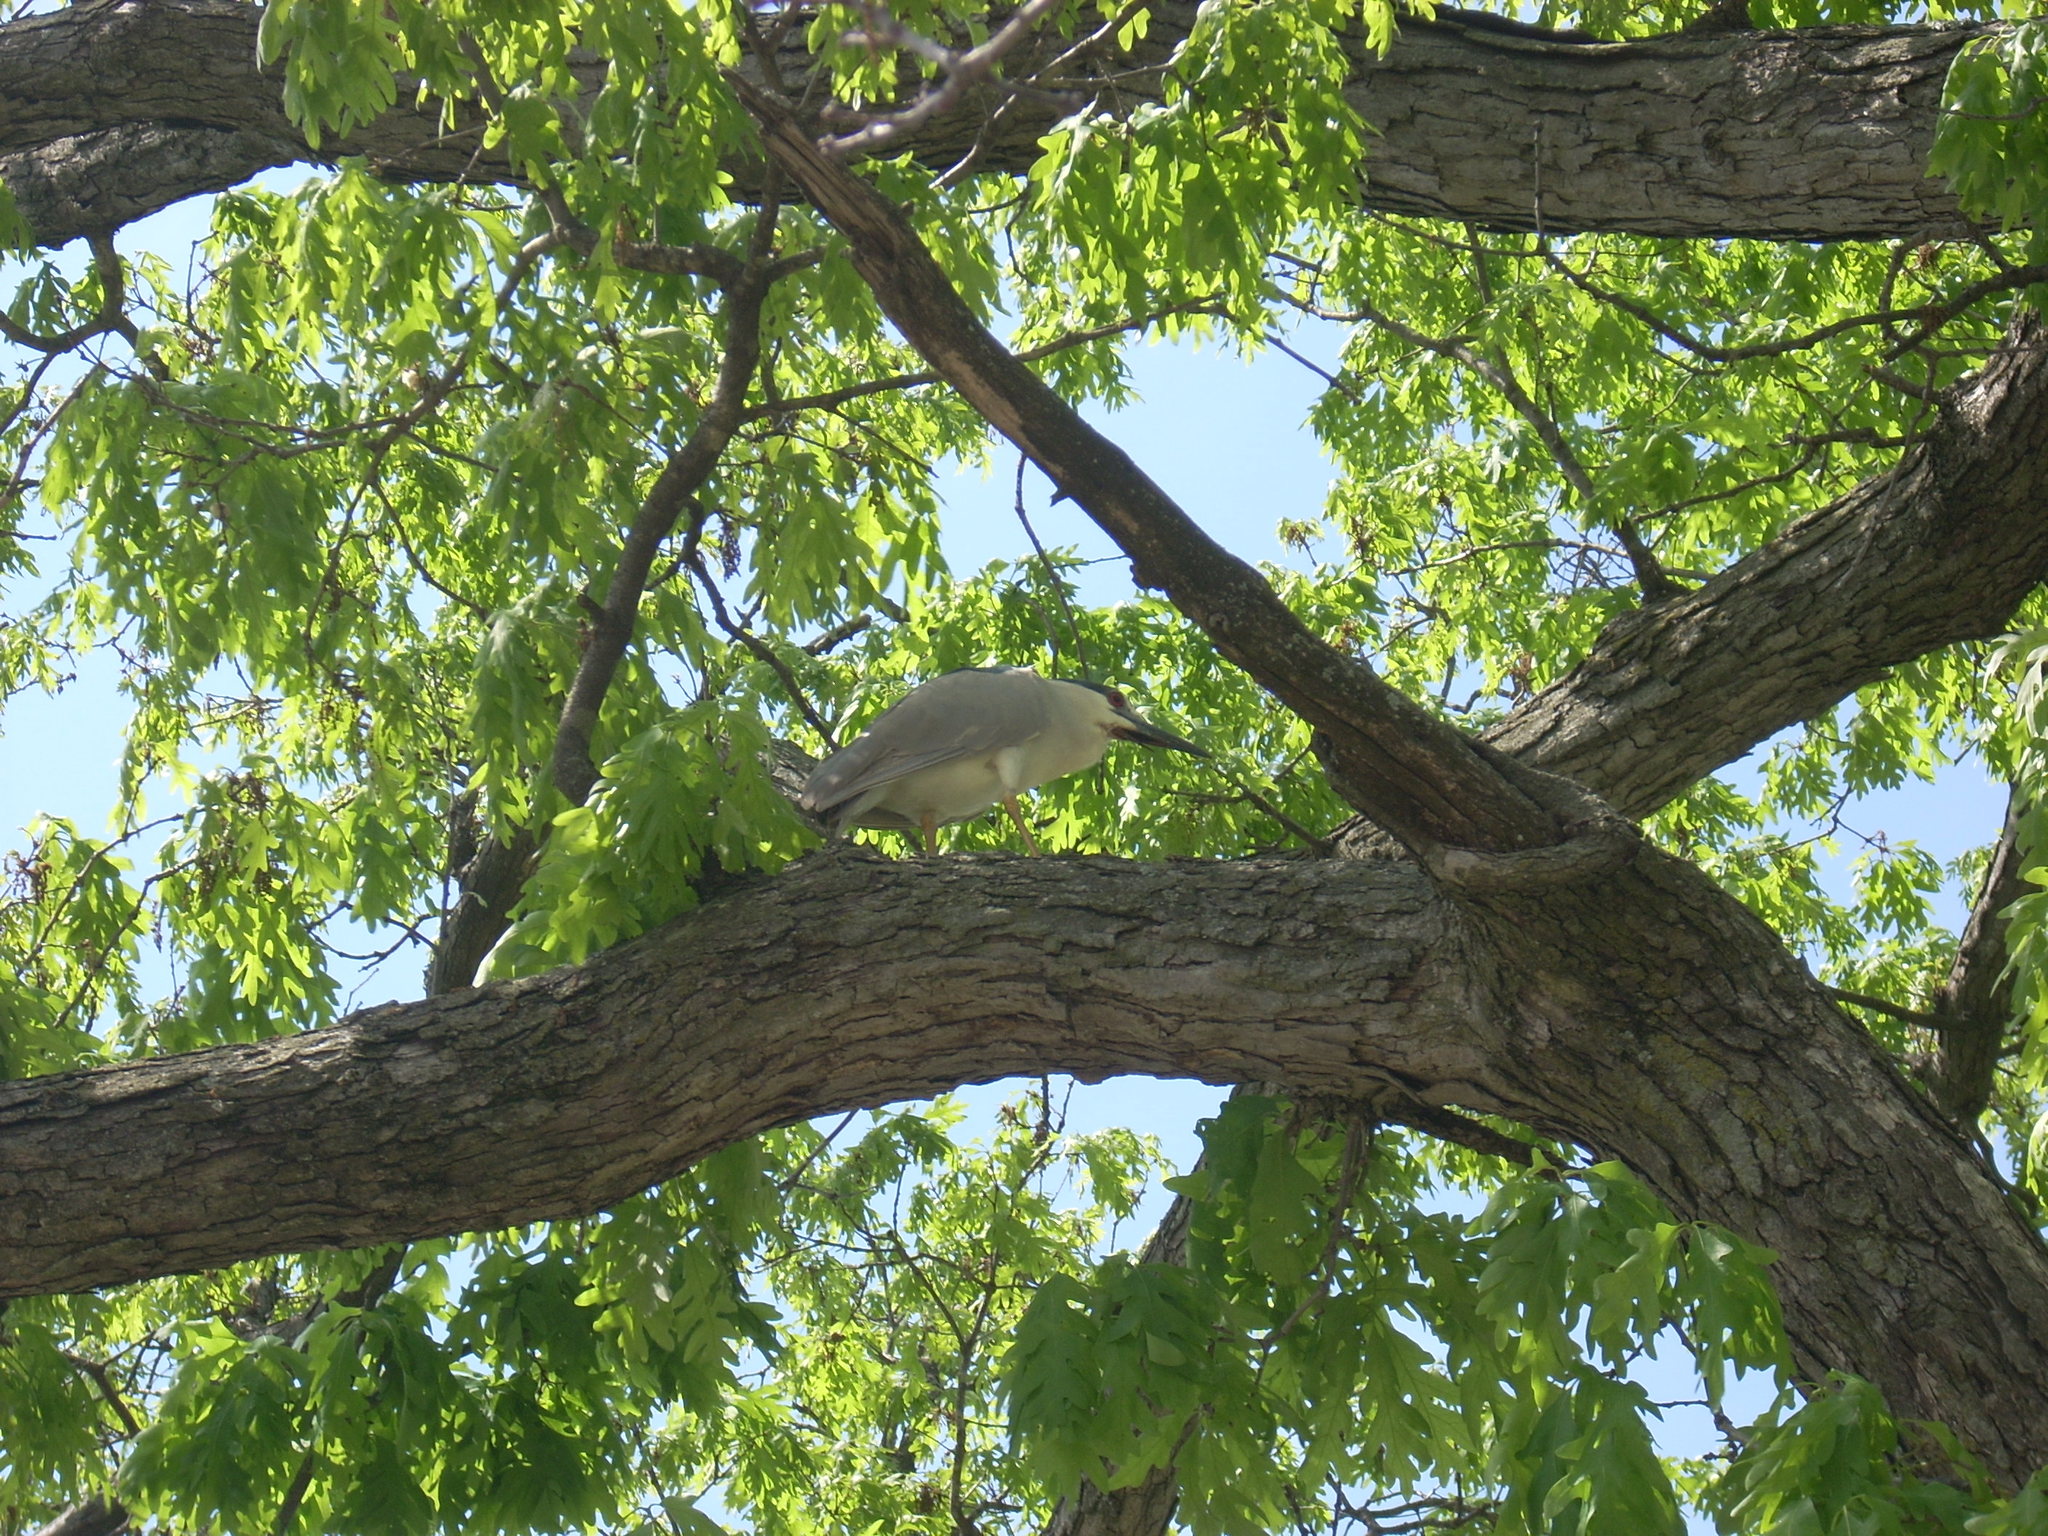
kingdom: Animalia
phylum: Chordata
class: Aves
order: Pelecaniformes
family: Ardeidae
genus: Nycticorax
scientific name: Nycticorax nycticorax
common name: Black-crowned night heron
